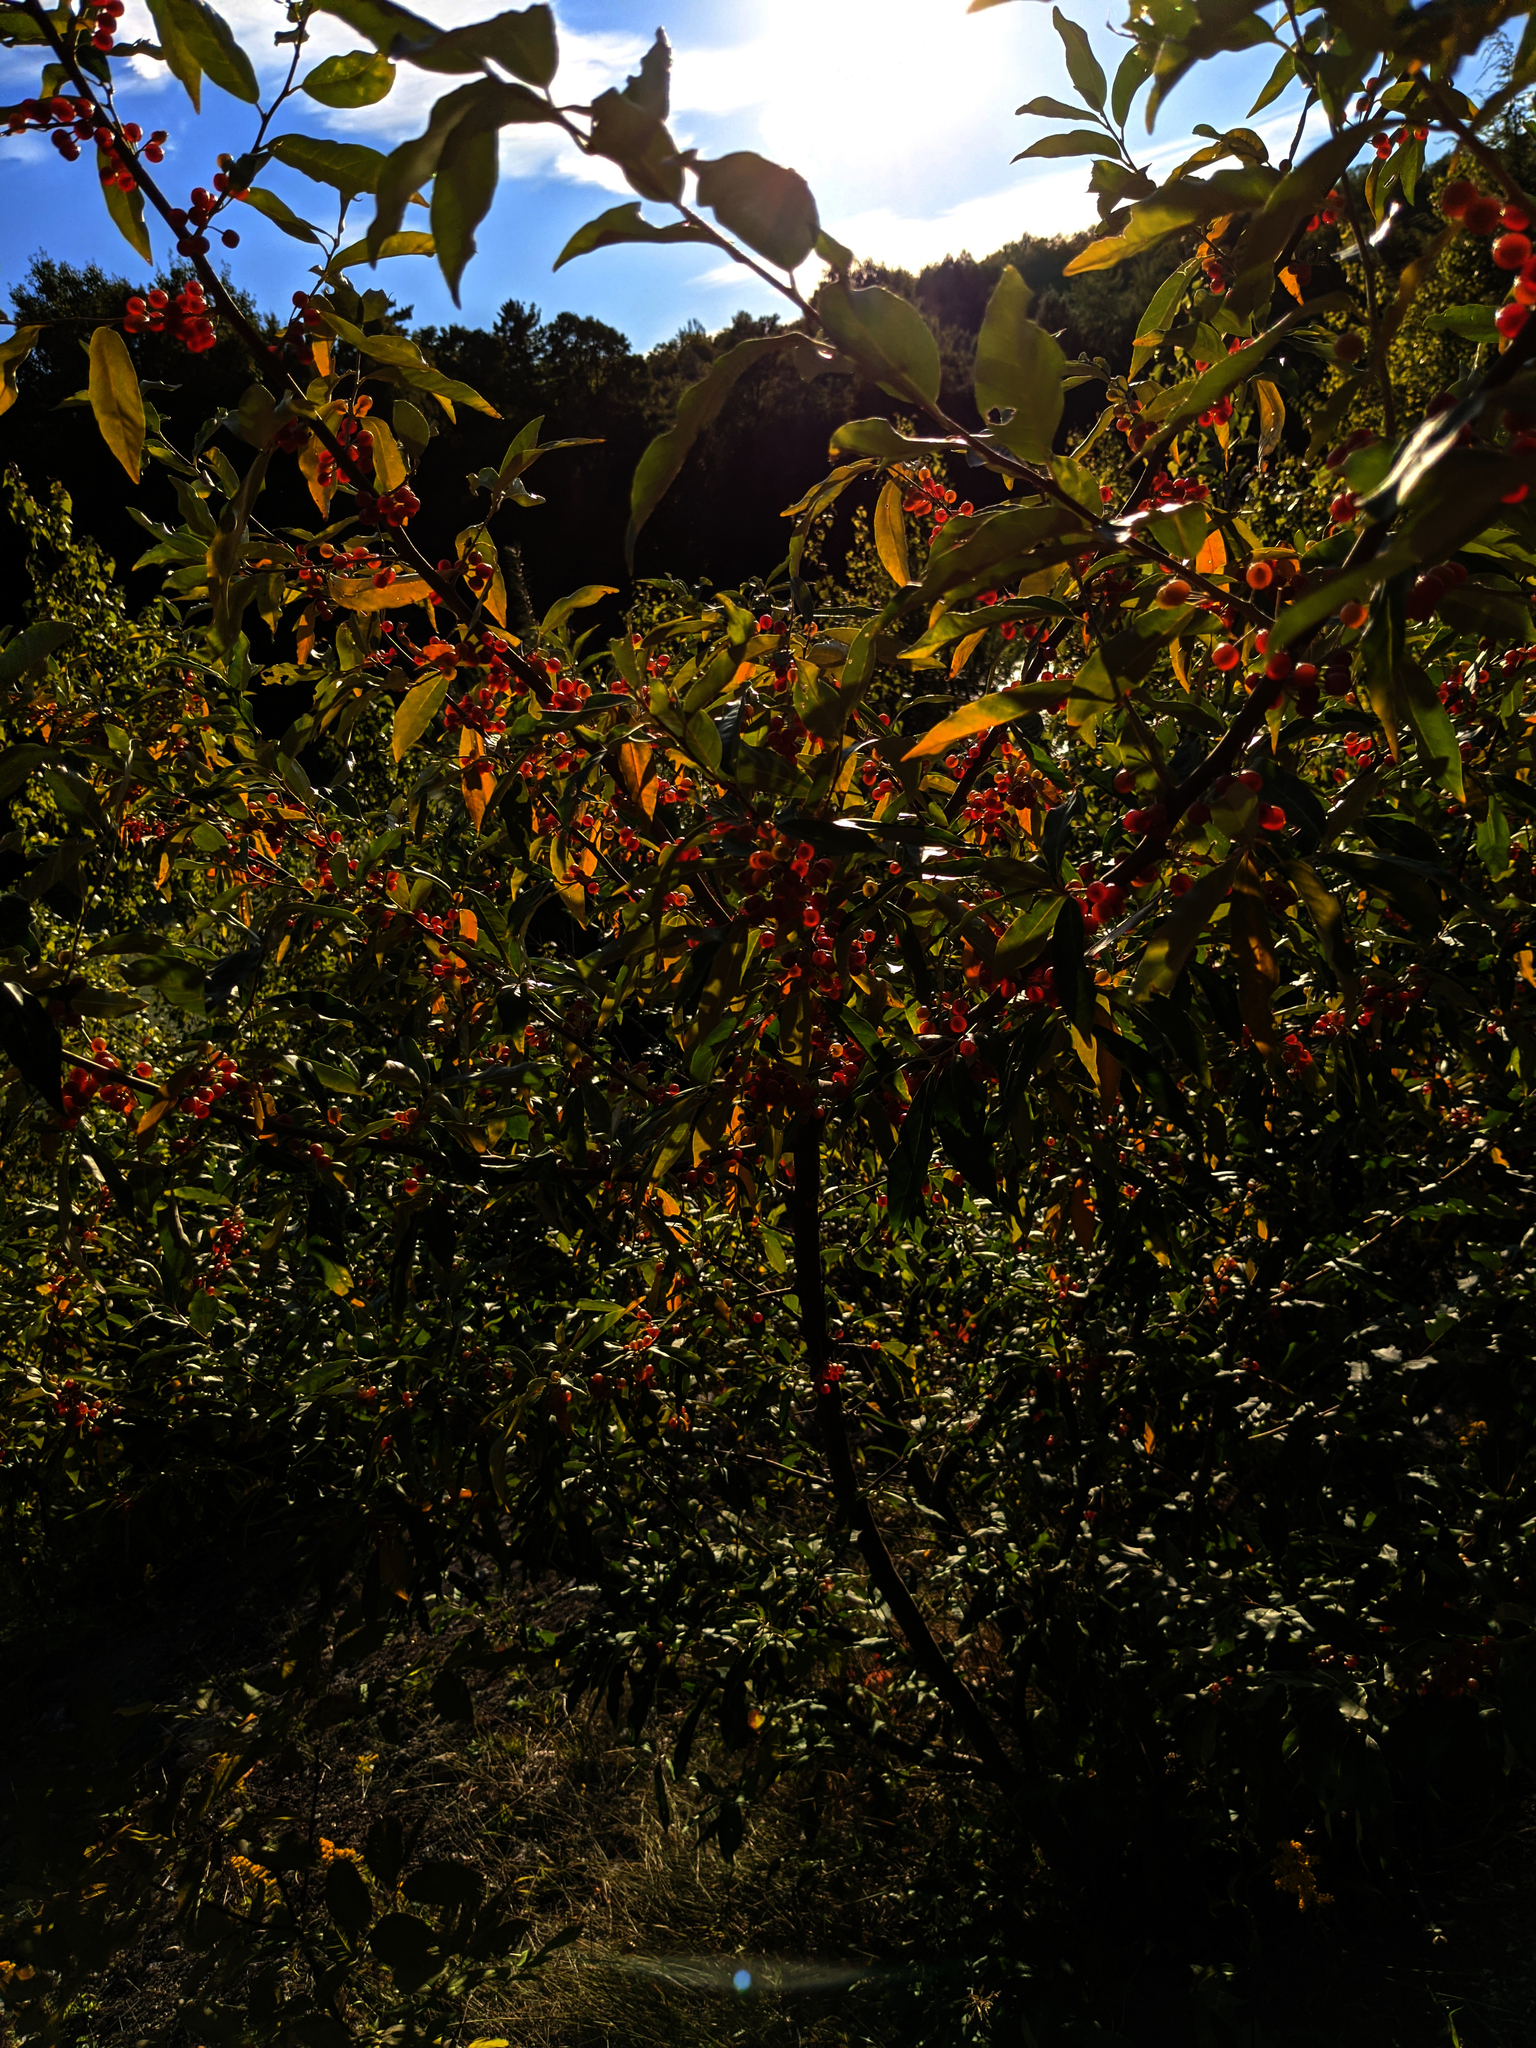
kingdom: Plantae
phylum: Tracheophyta
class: Magnoliopsida
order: Rosales
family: Elaeagnaceae
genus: Elaeagnus
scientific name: Elaeagnus umbellata
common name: Autumn olive
